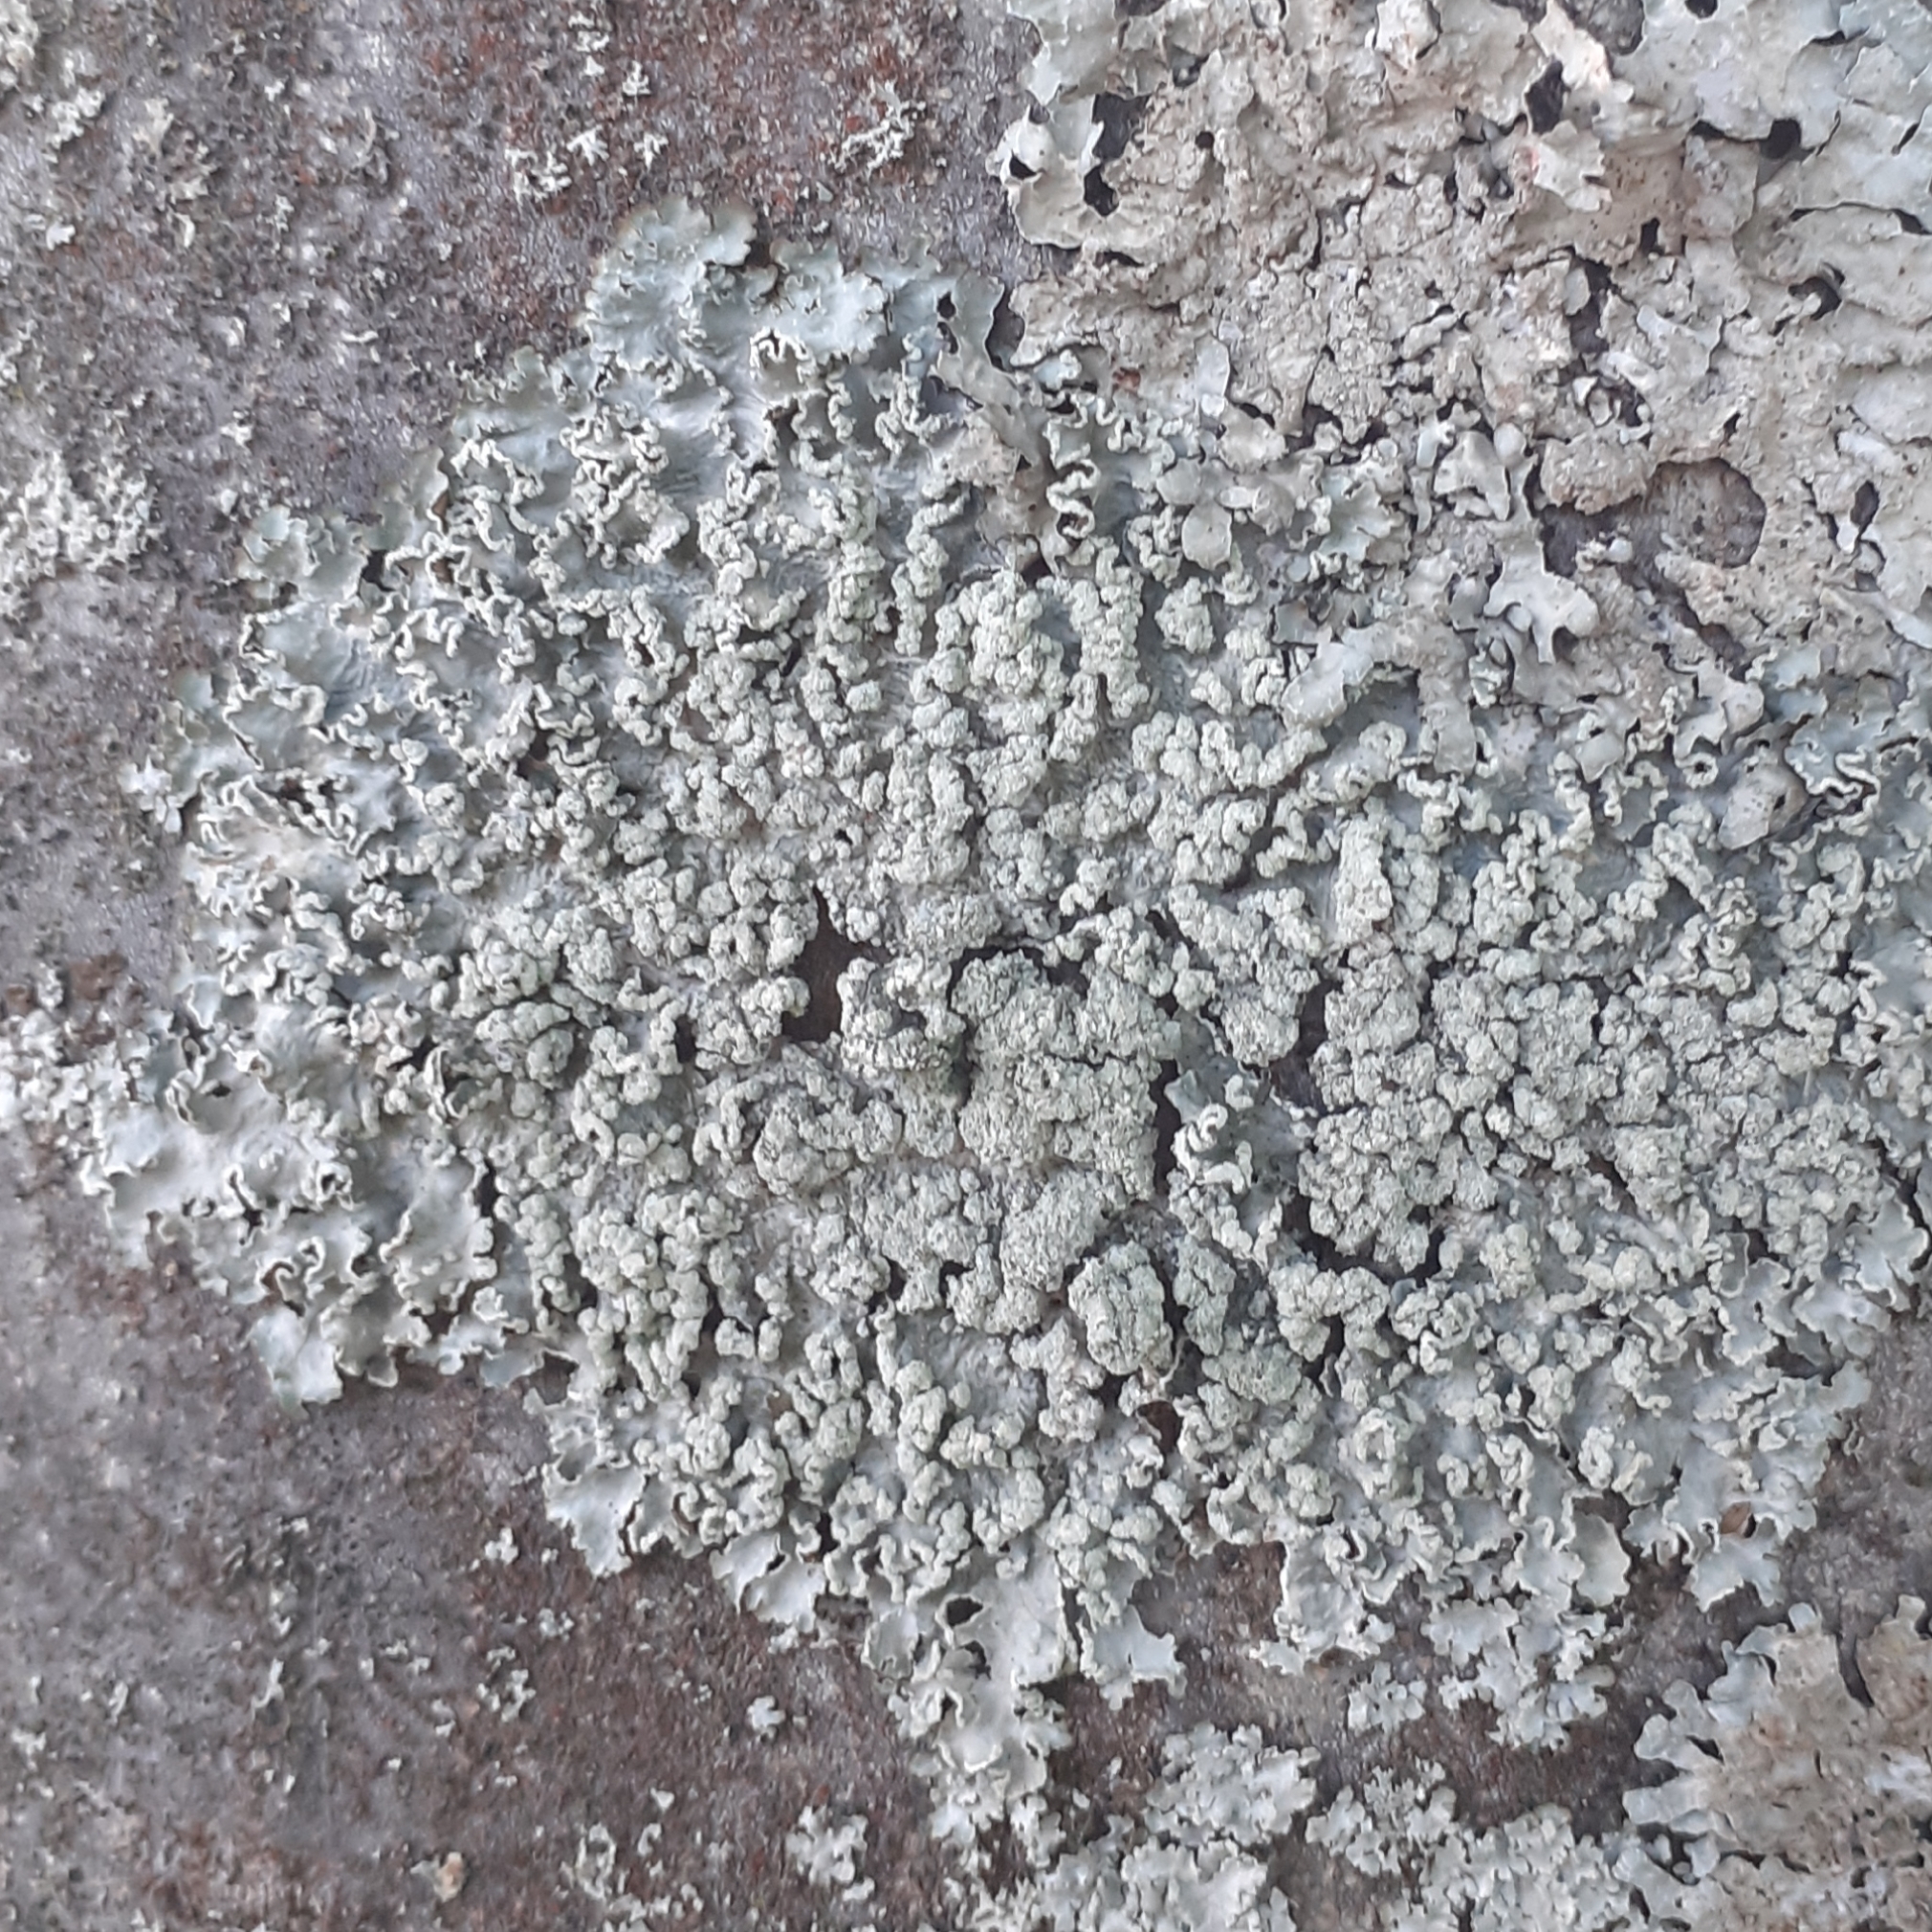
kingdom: Fungi
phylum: Ascomycota
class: Lecanoromycetes
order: Lecanorales
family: Parmeliaceae
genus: Punctelia
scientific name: Punctelia jeckeri
